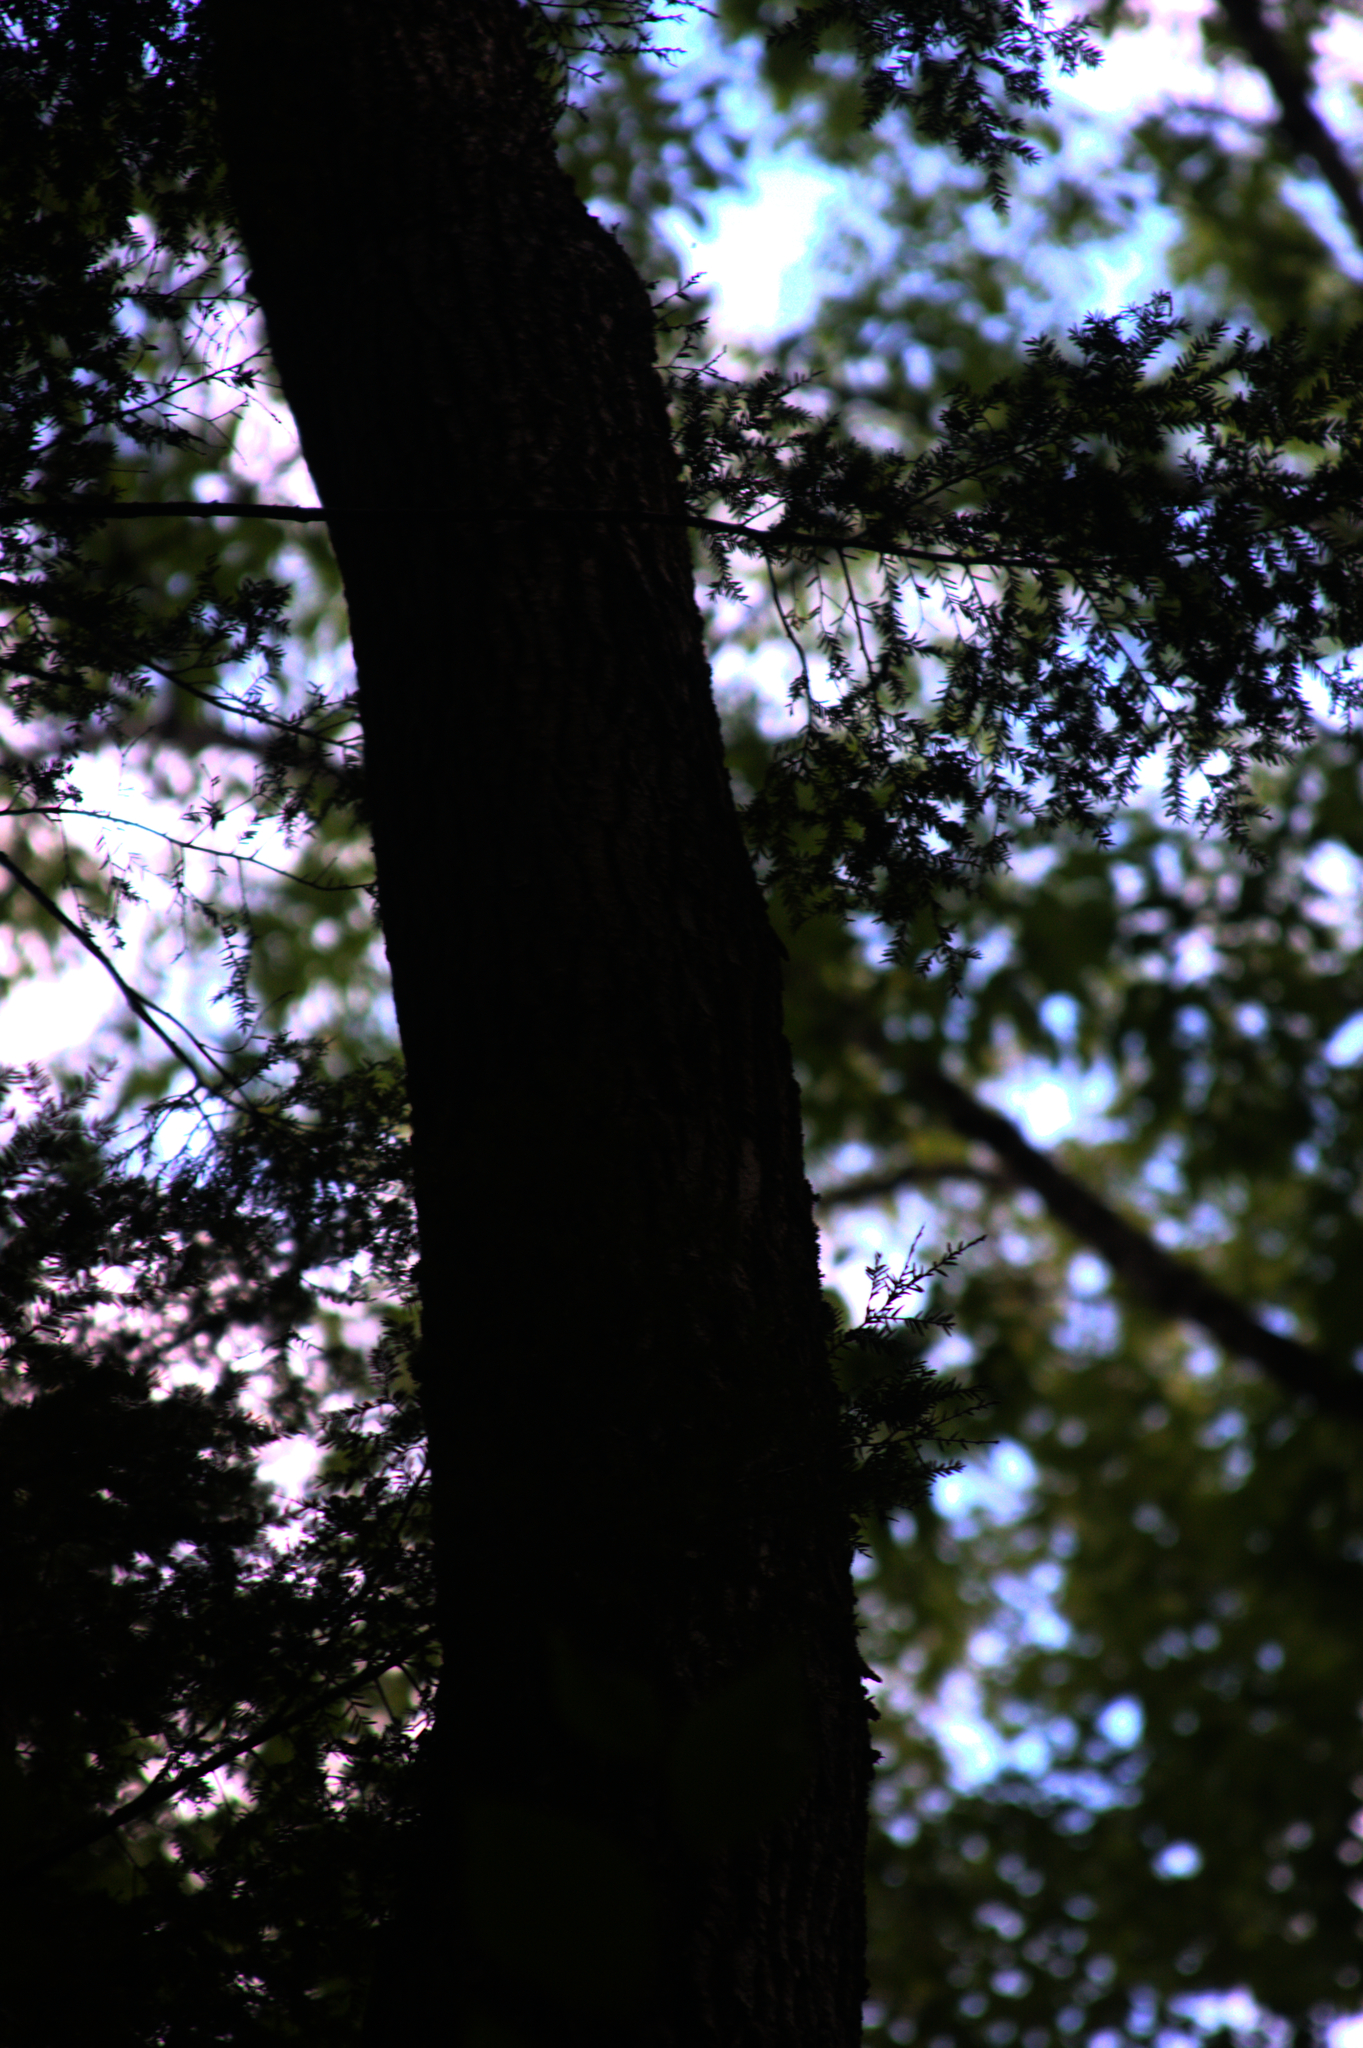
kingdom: Plantae
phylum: Tracheophyta
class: Pinopsida
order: Pinales
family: Pinaceae
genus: Tsuga
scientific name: Tsuga canadensis
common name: Eastern hemlock
